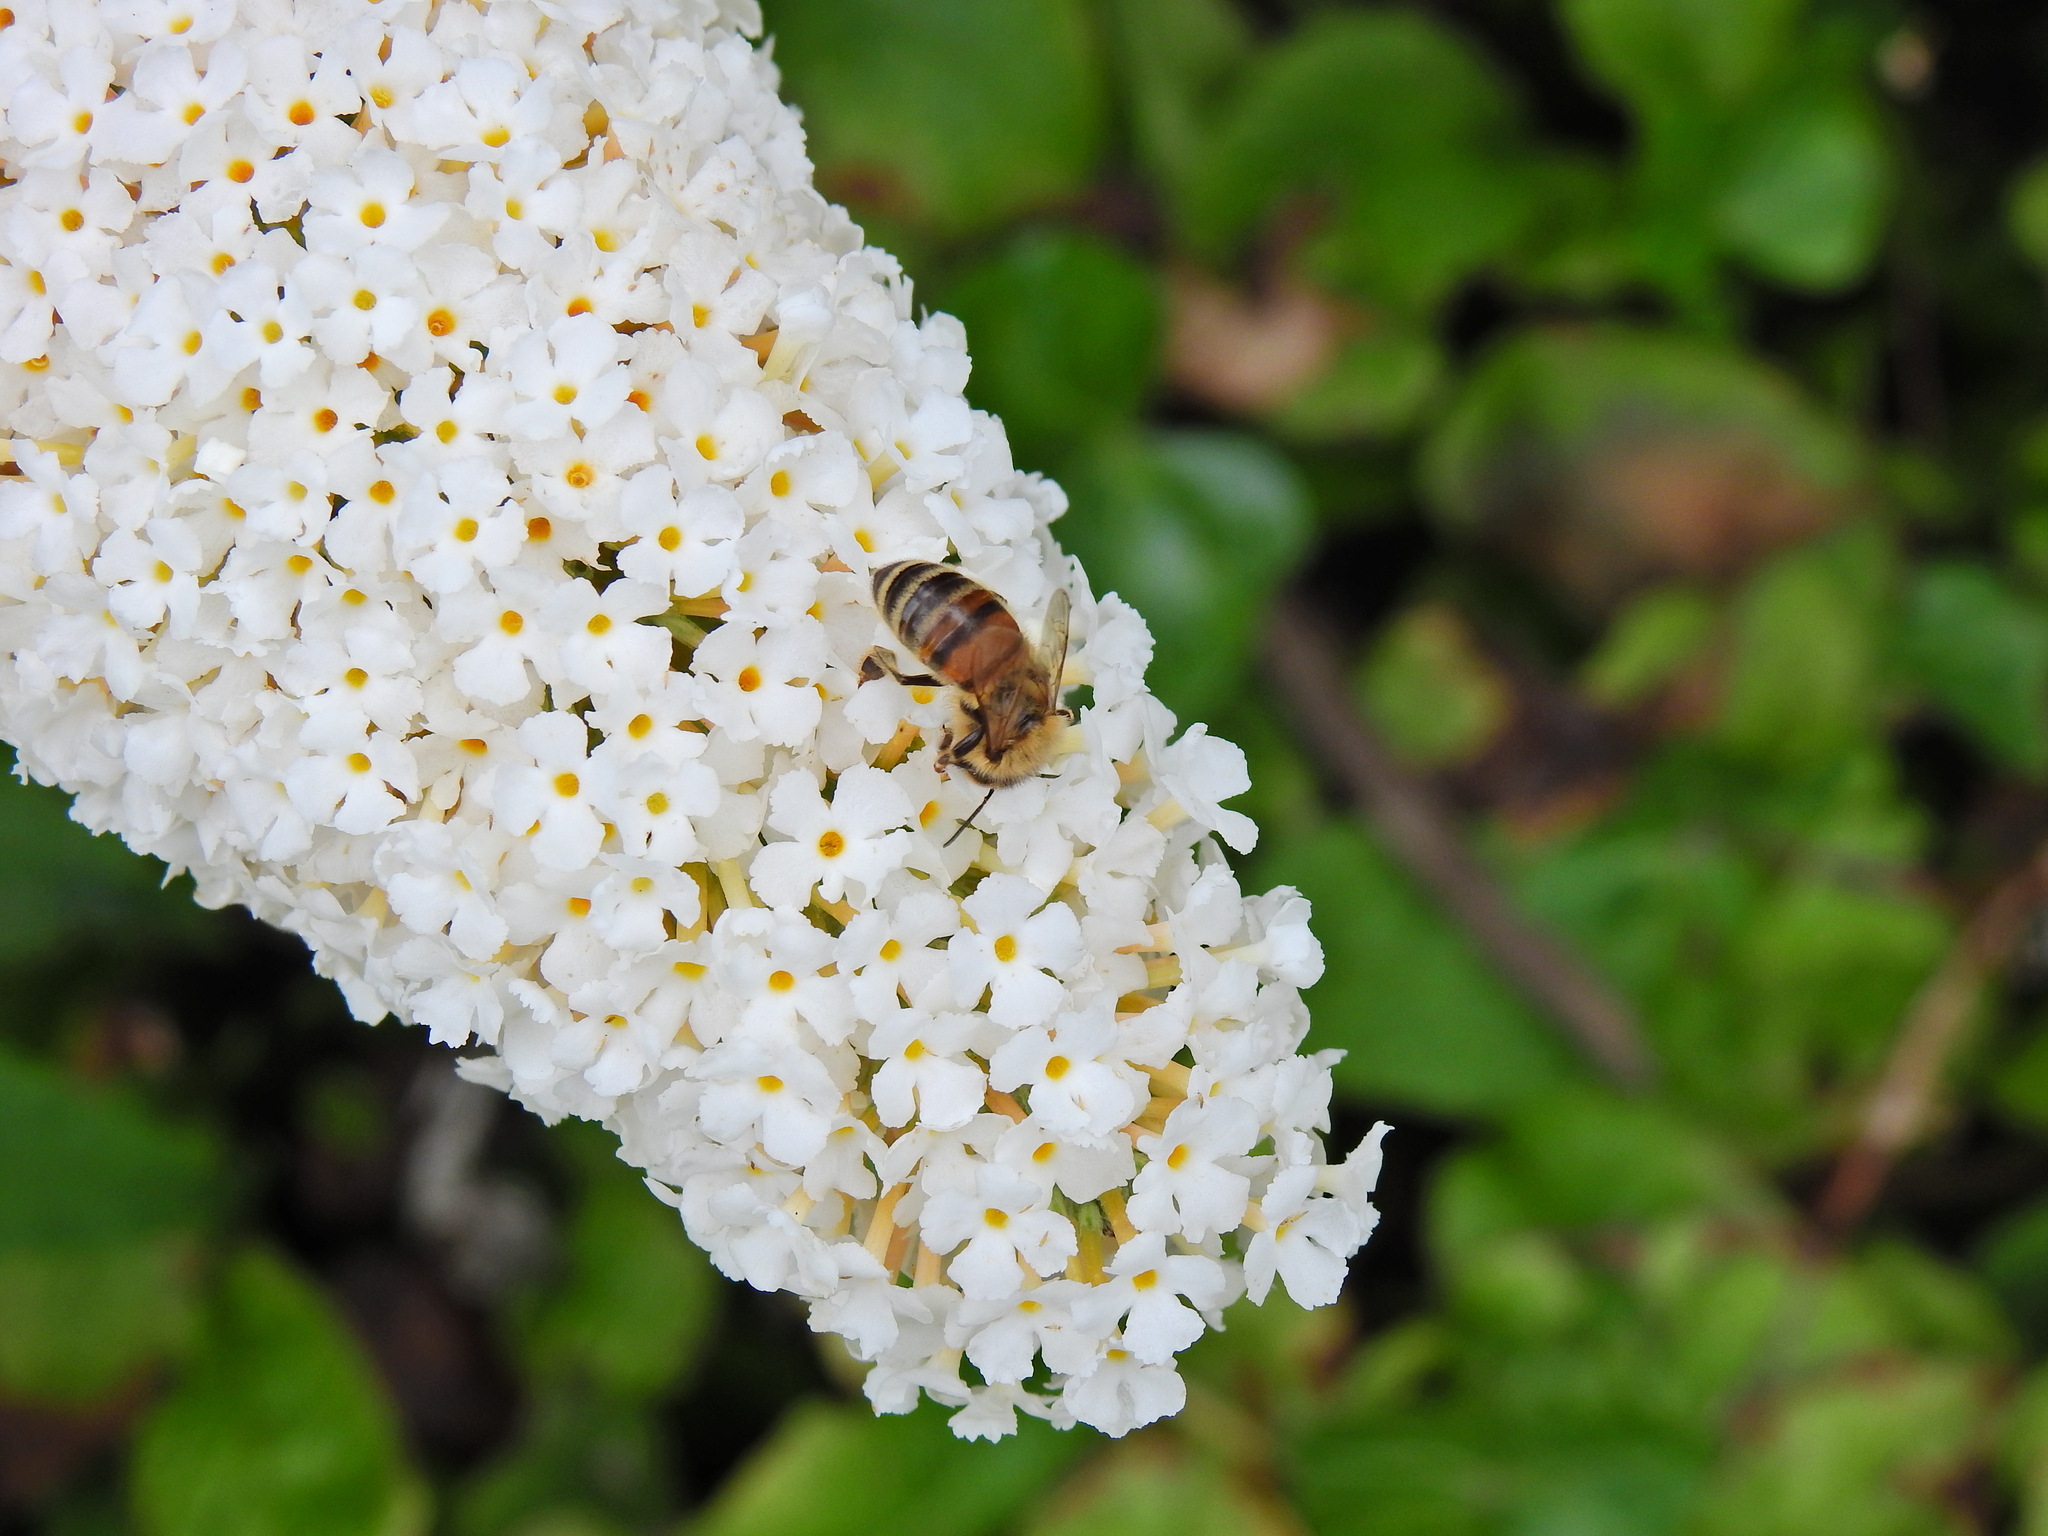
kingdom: Animalia
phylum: Arthropoda
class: Insecta
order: Hymenoptera
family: Apidae
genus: Apis
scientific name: Apis mellifera
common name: Honey bee
